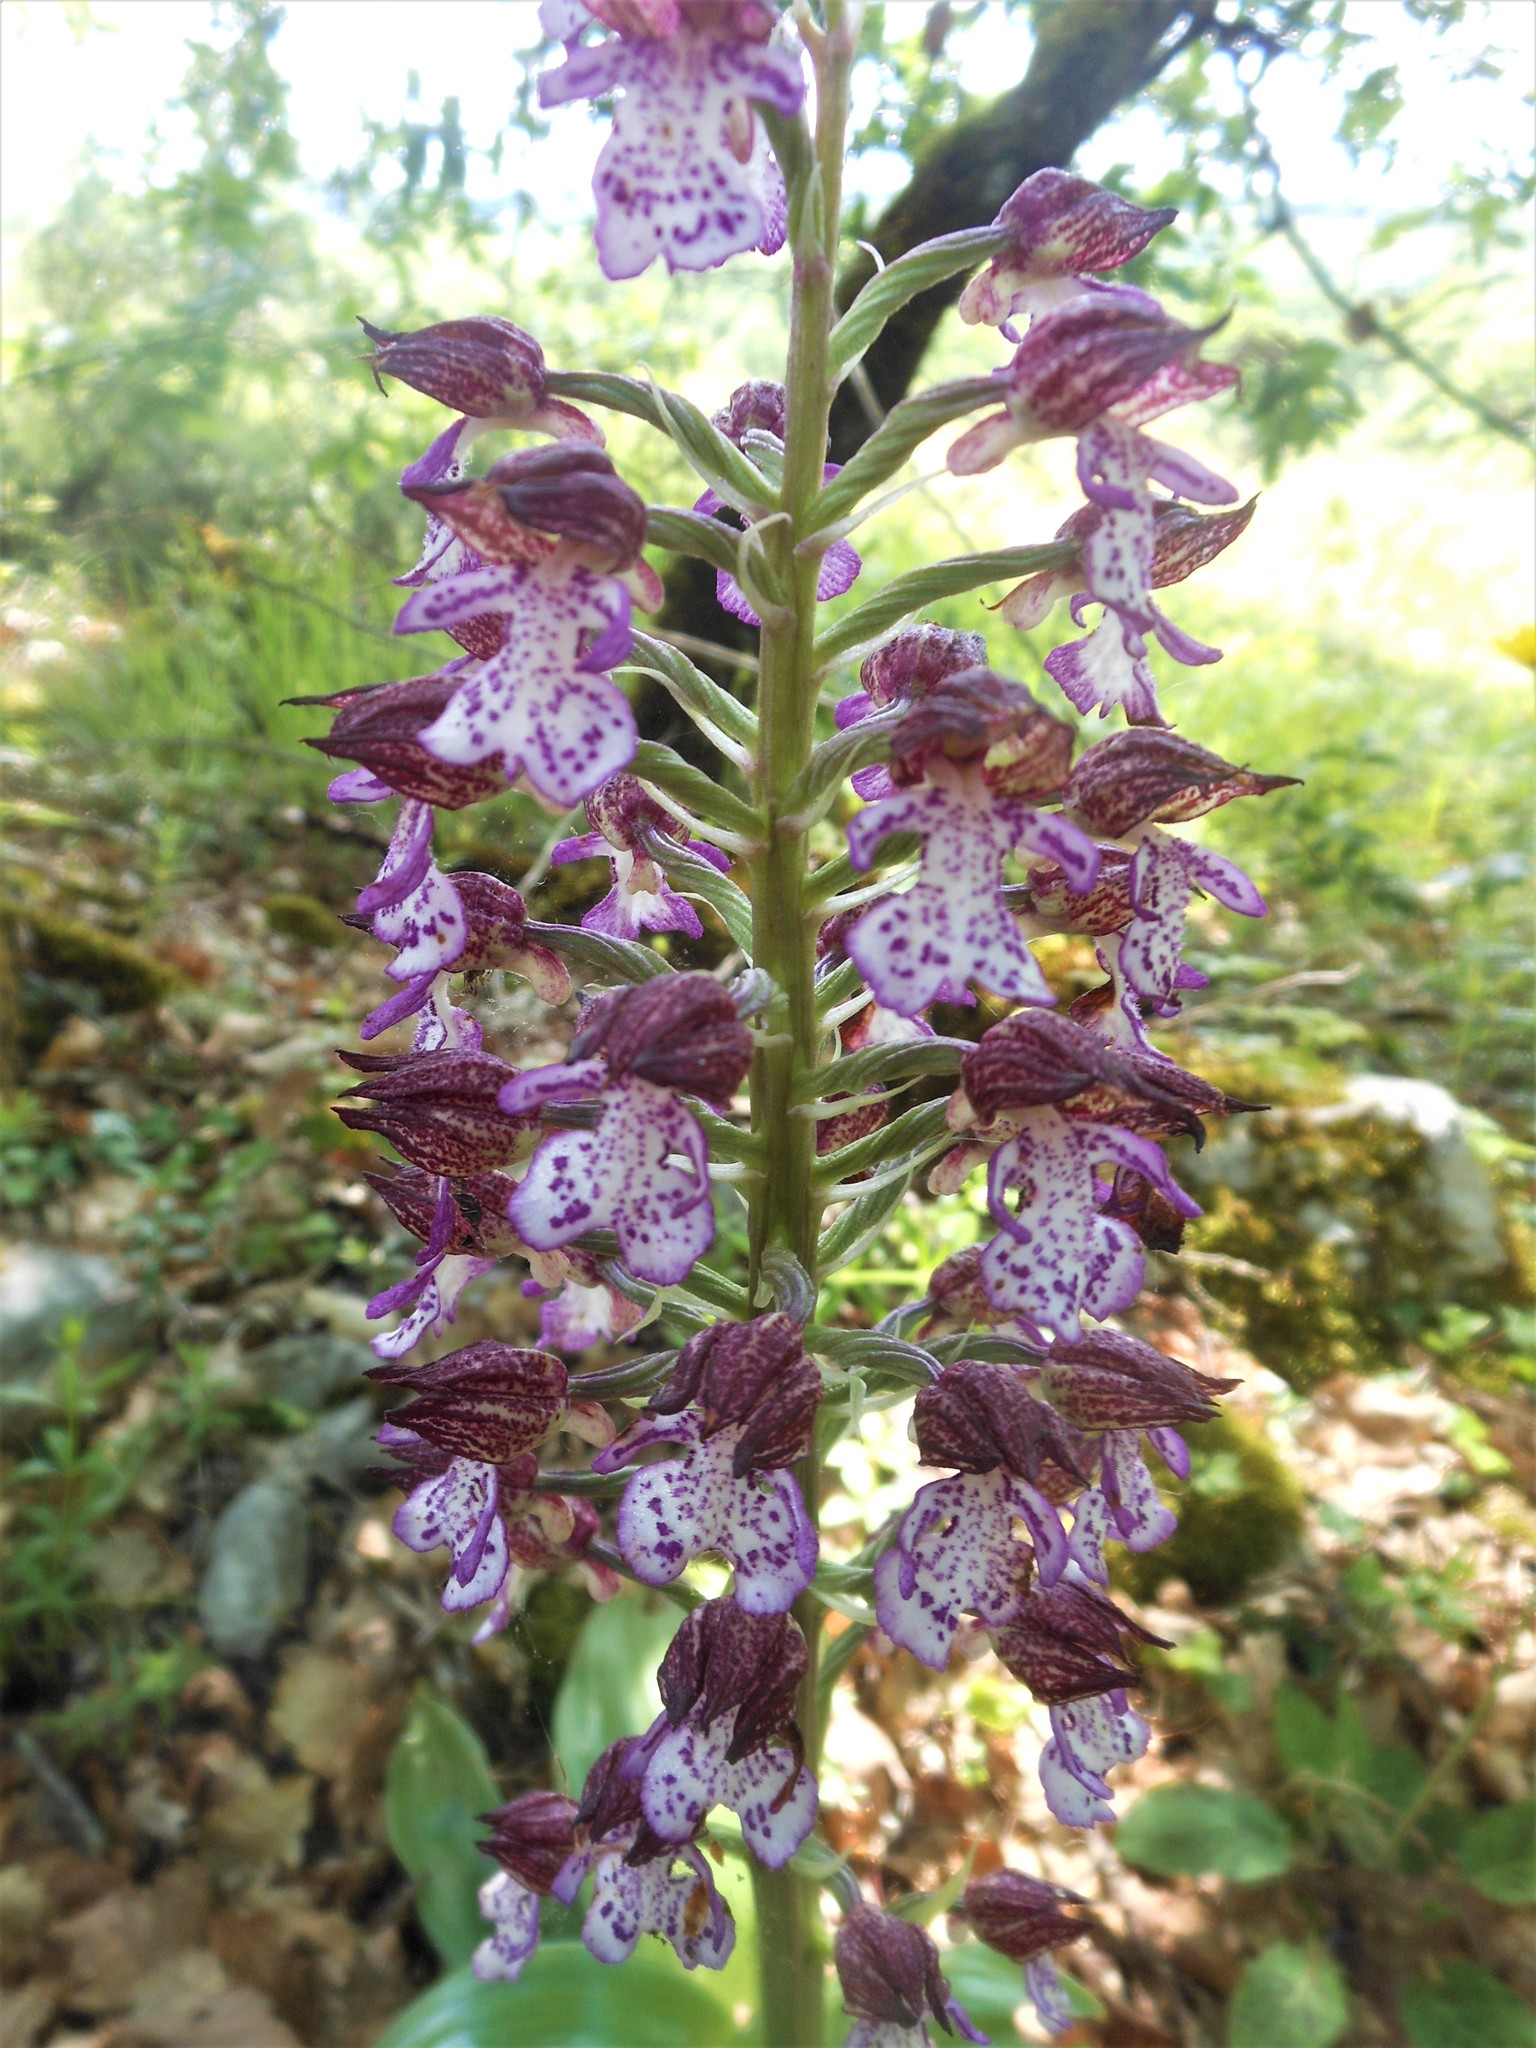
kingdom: Plantae
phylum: Tracheophyta
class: Liliopsida
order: Asparagales
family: Orchidaceae
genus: Orchis
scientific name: Orchis purpurea
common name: Lady orchid
